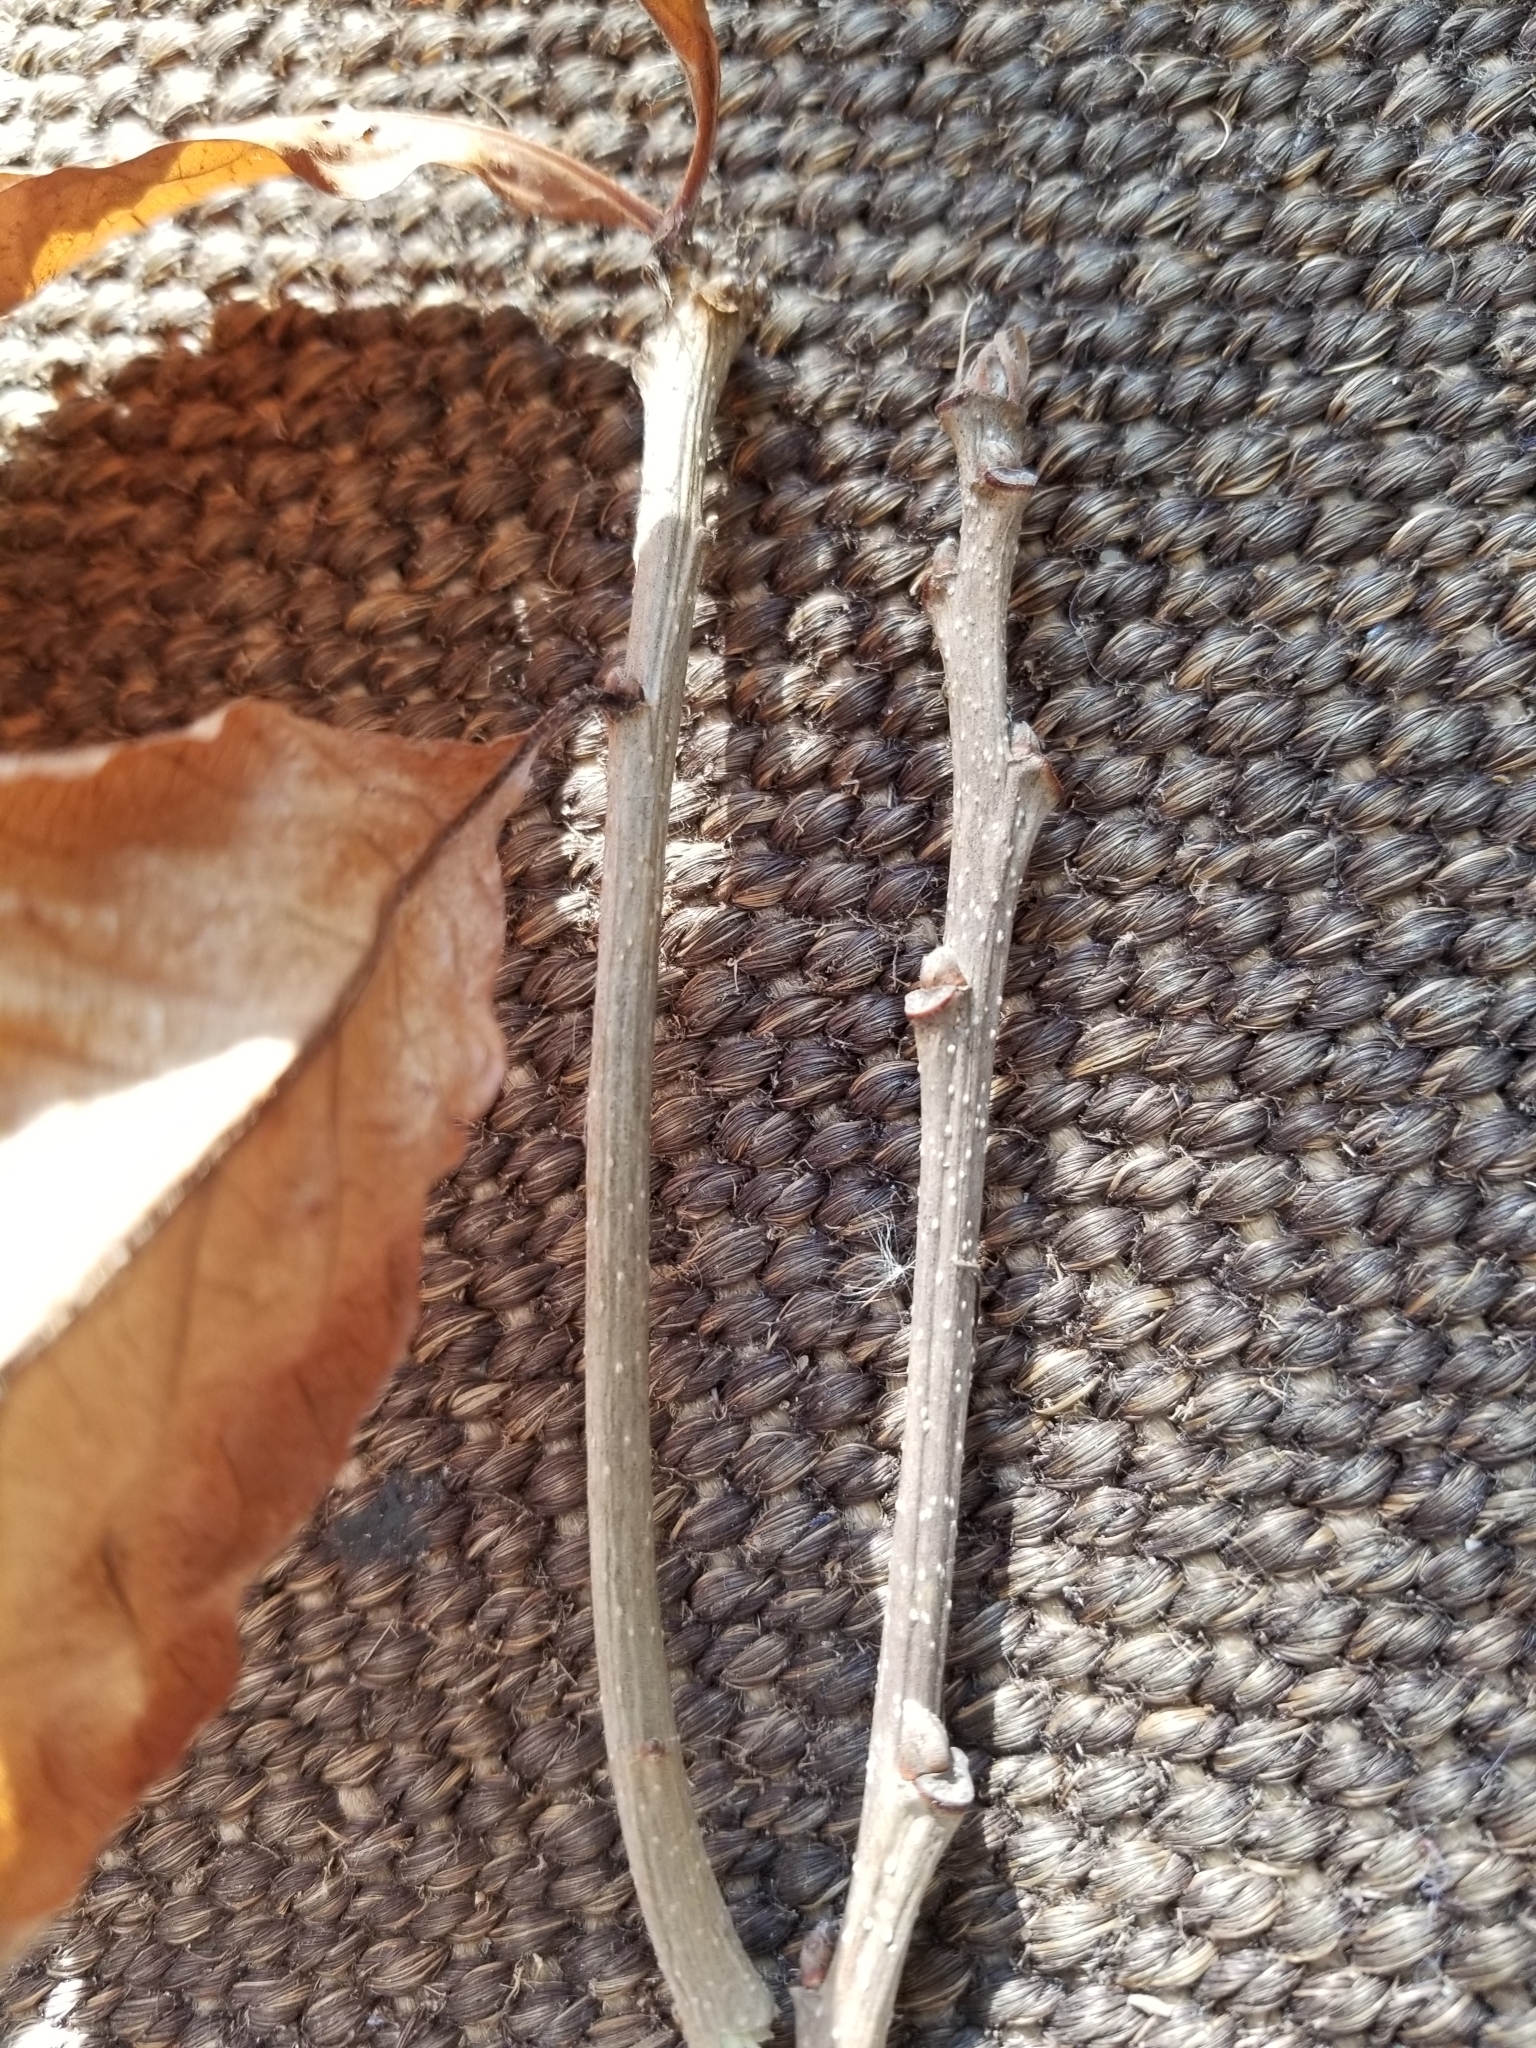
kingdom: Plantae
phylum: Tracheophyta
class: Magnoliopsida
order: Fagales
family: Fagaceae
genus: Quercus
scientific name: Quercus macrocarpa
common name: Bur oak
